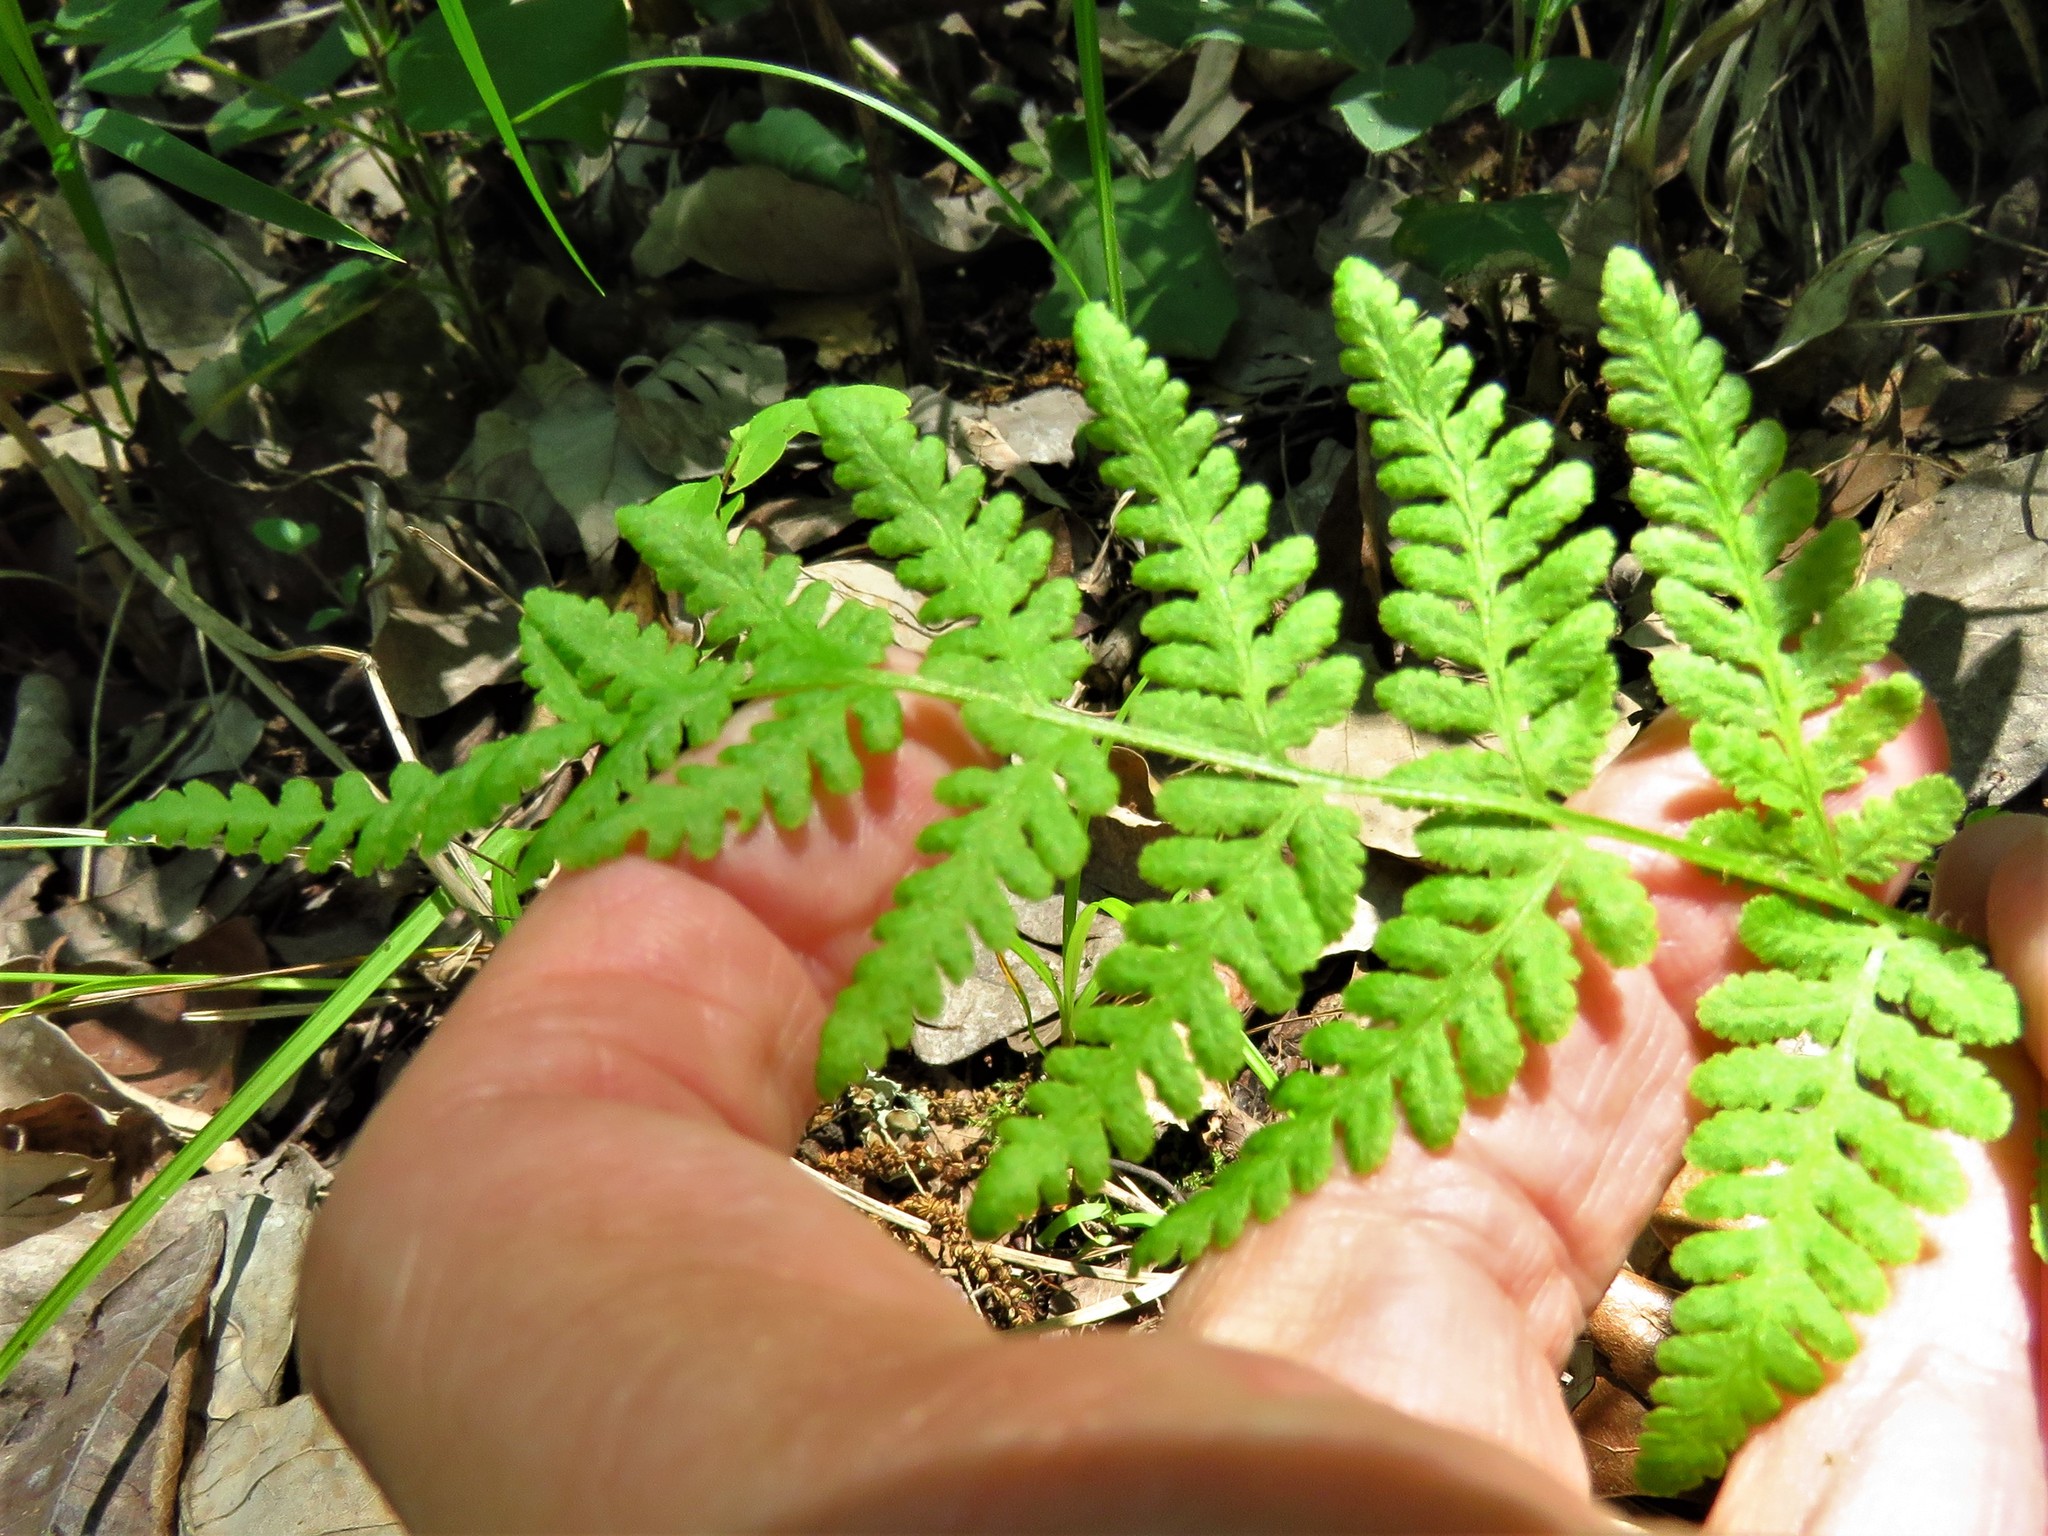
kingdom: Plantae
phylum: Tracheophyta
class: Polypodiopsida
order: Polypodiales
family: Woodsiaceae
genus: Physematium
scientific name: Physematium obtusum
